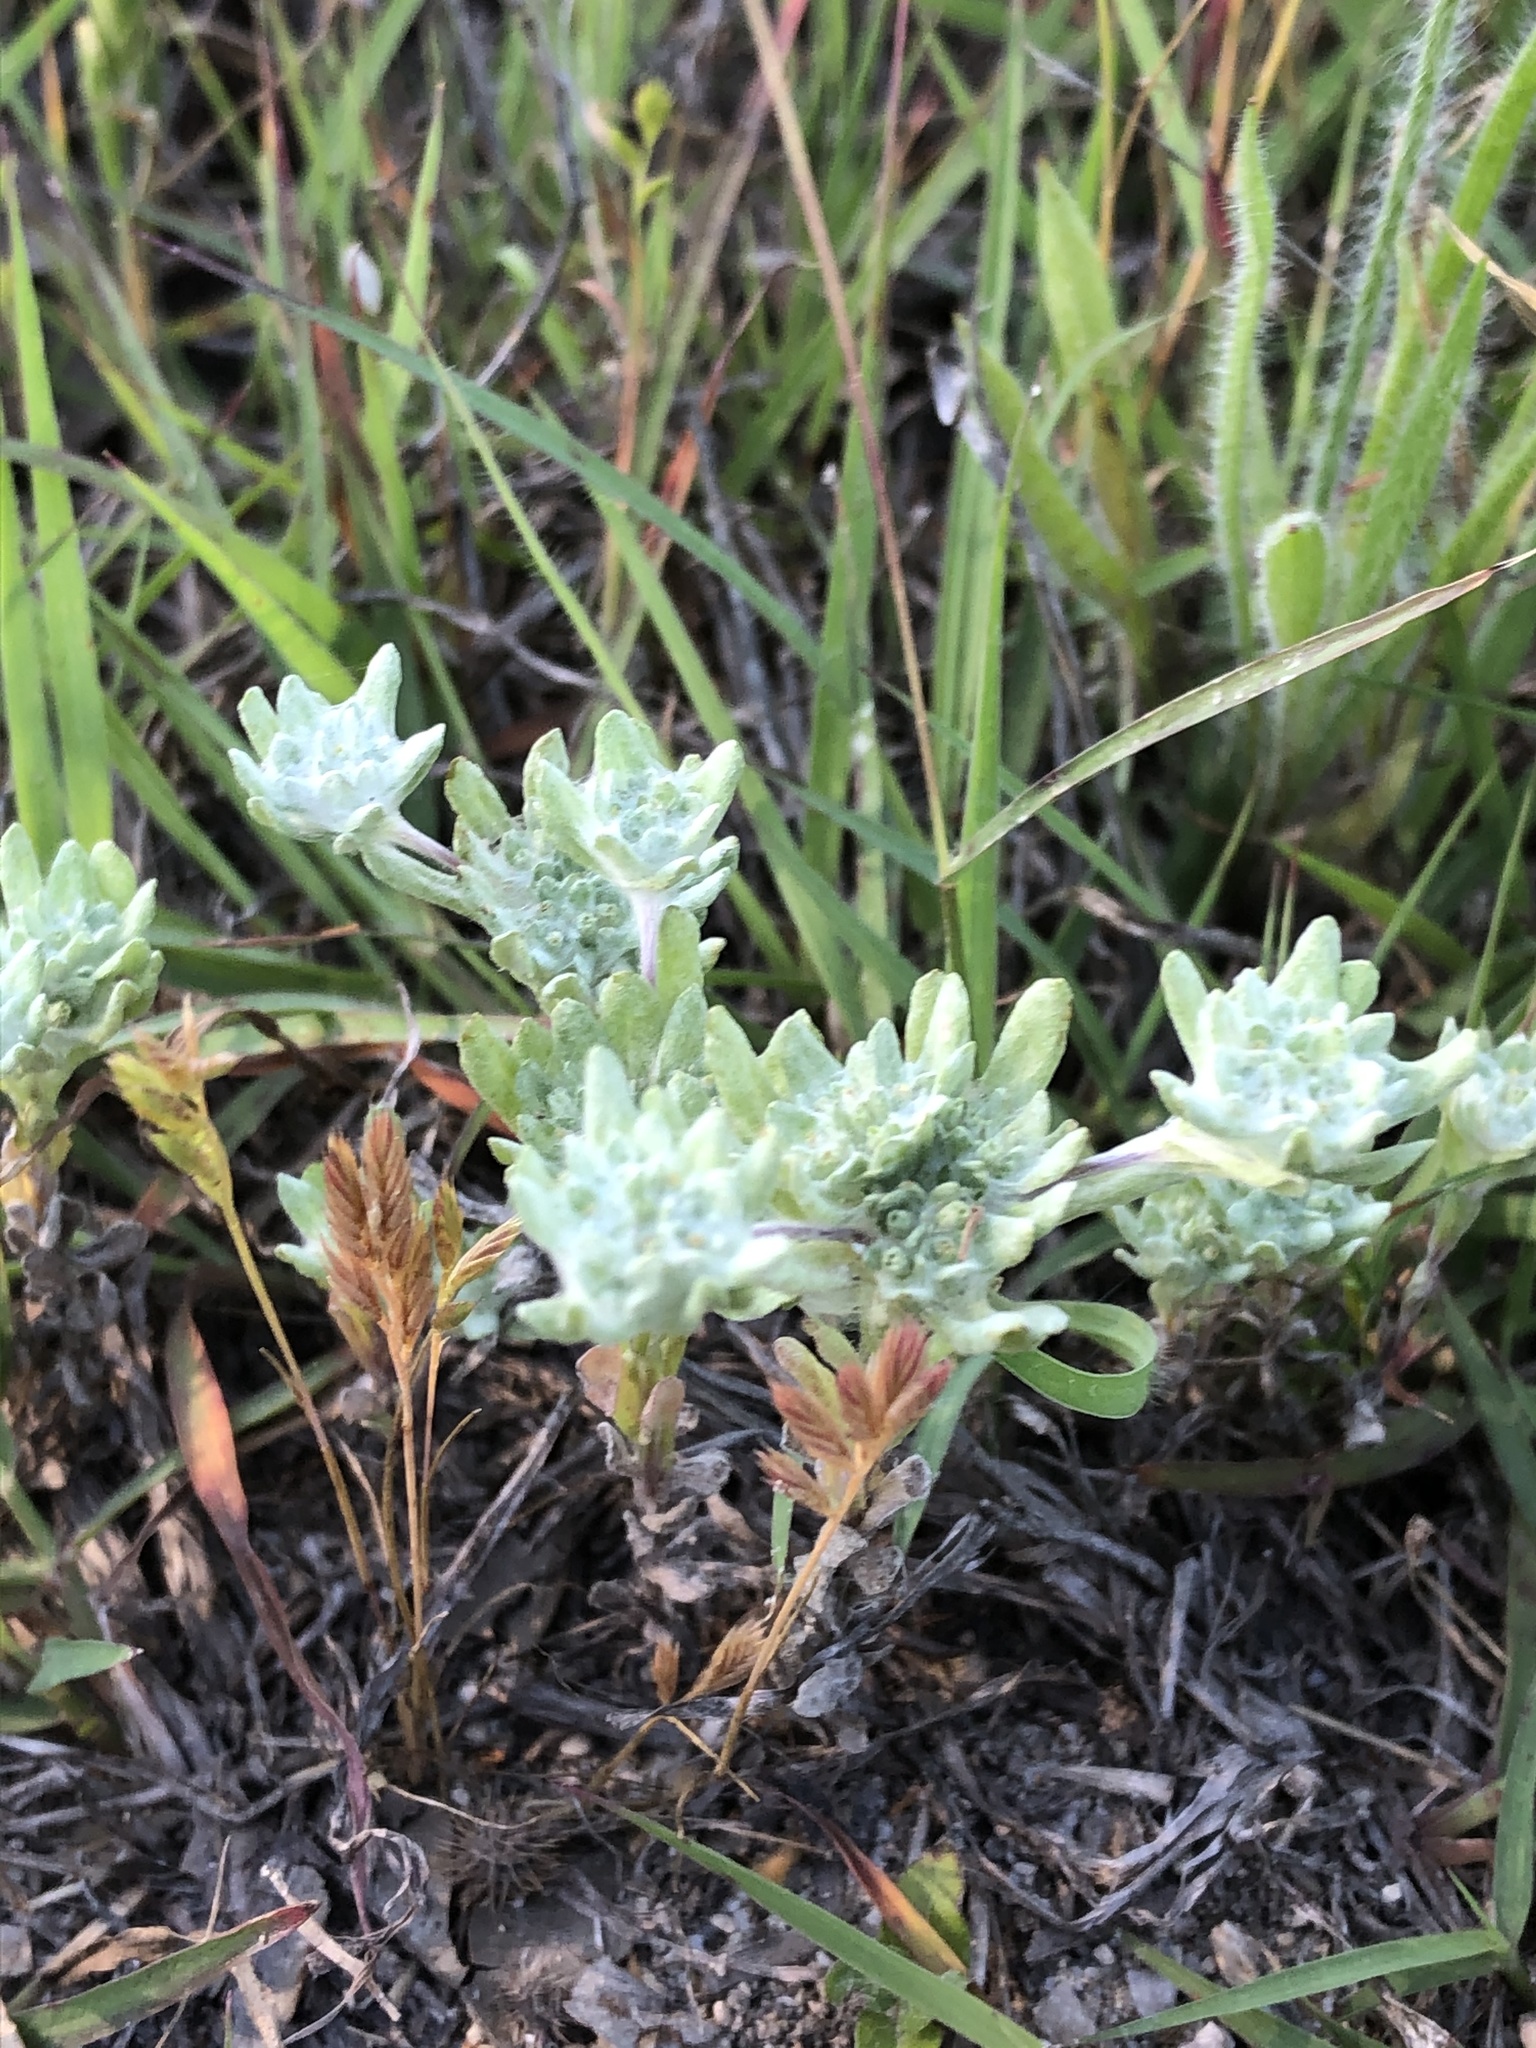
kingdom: Plantae
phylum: Tracheophyta
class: Magnoliopsida
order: Asterales
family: Asteraceae
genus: Diaperia
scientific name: Diaperia prolifera
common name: Big-head rabbit-tobacco
